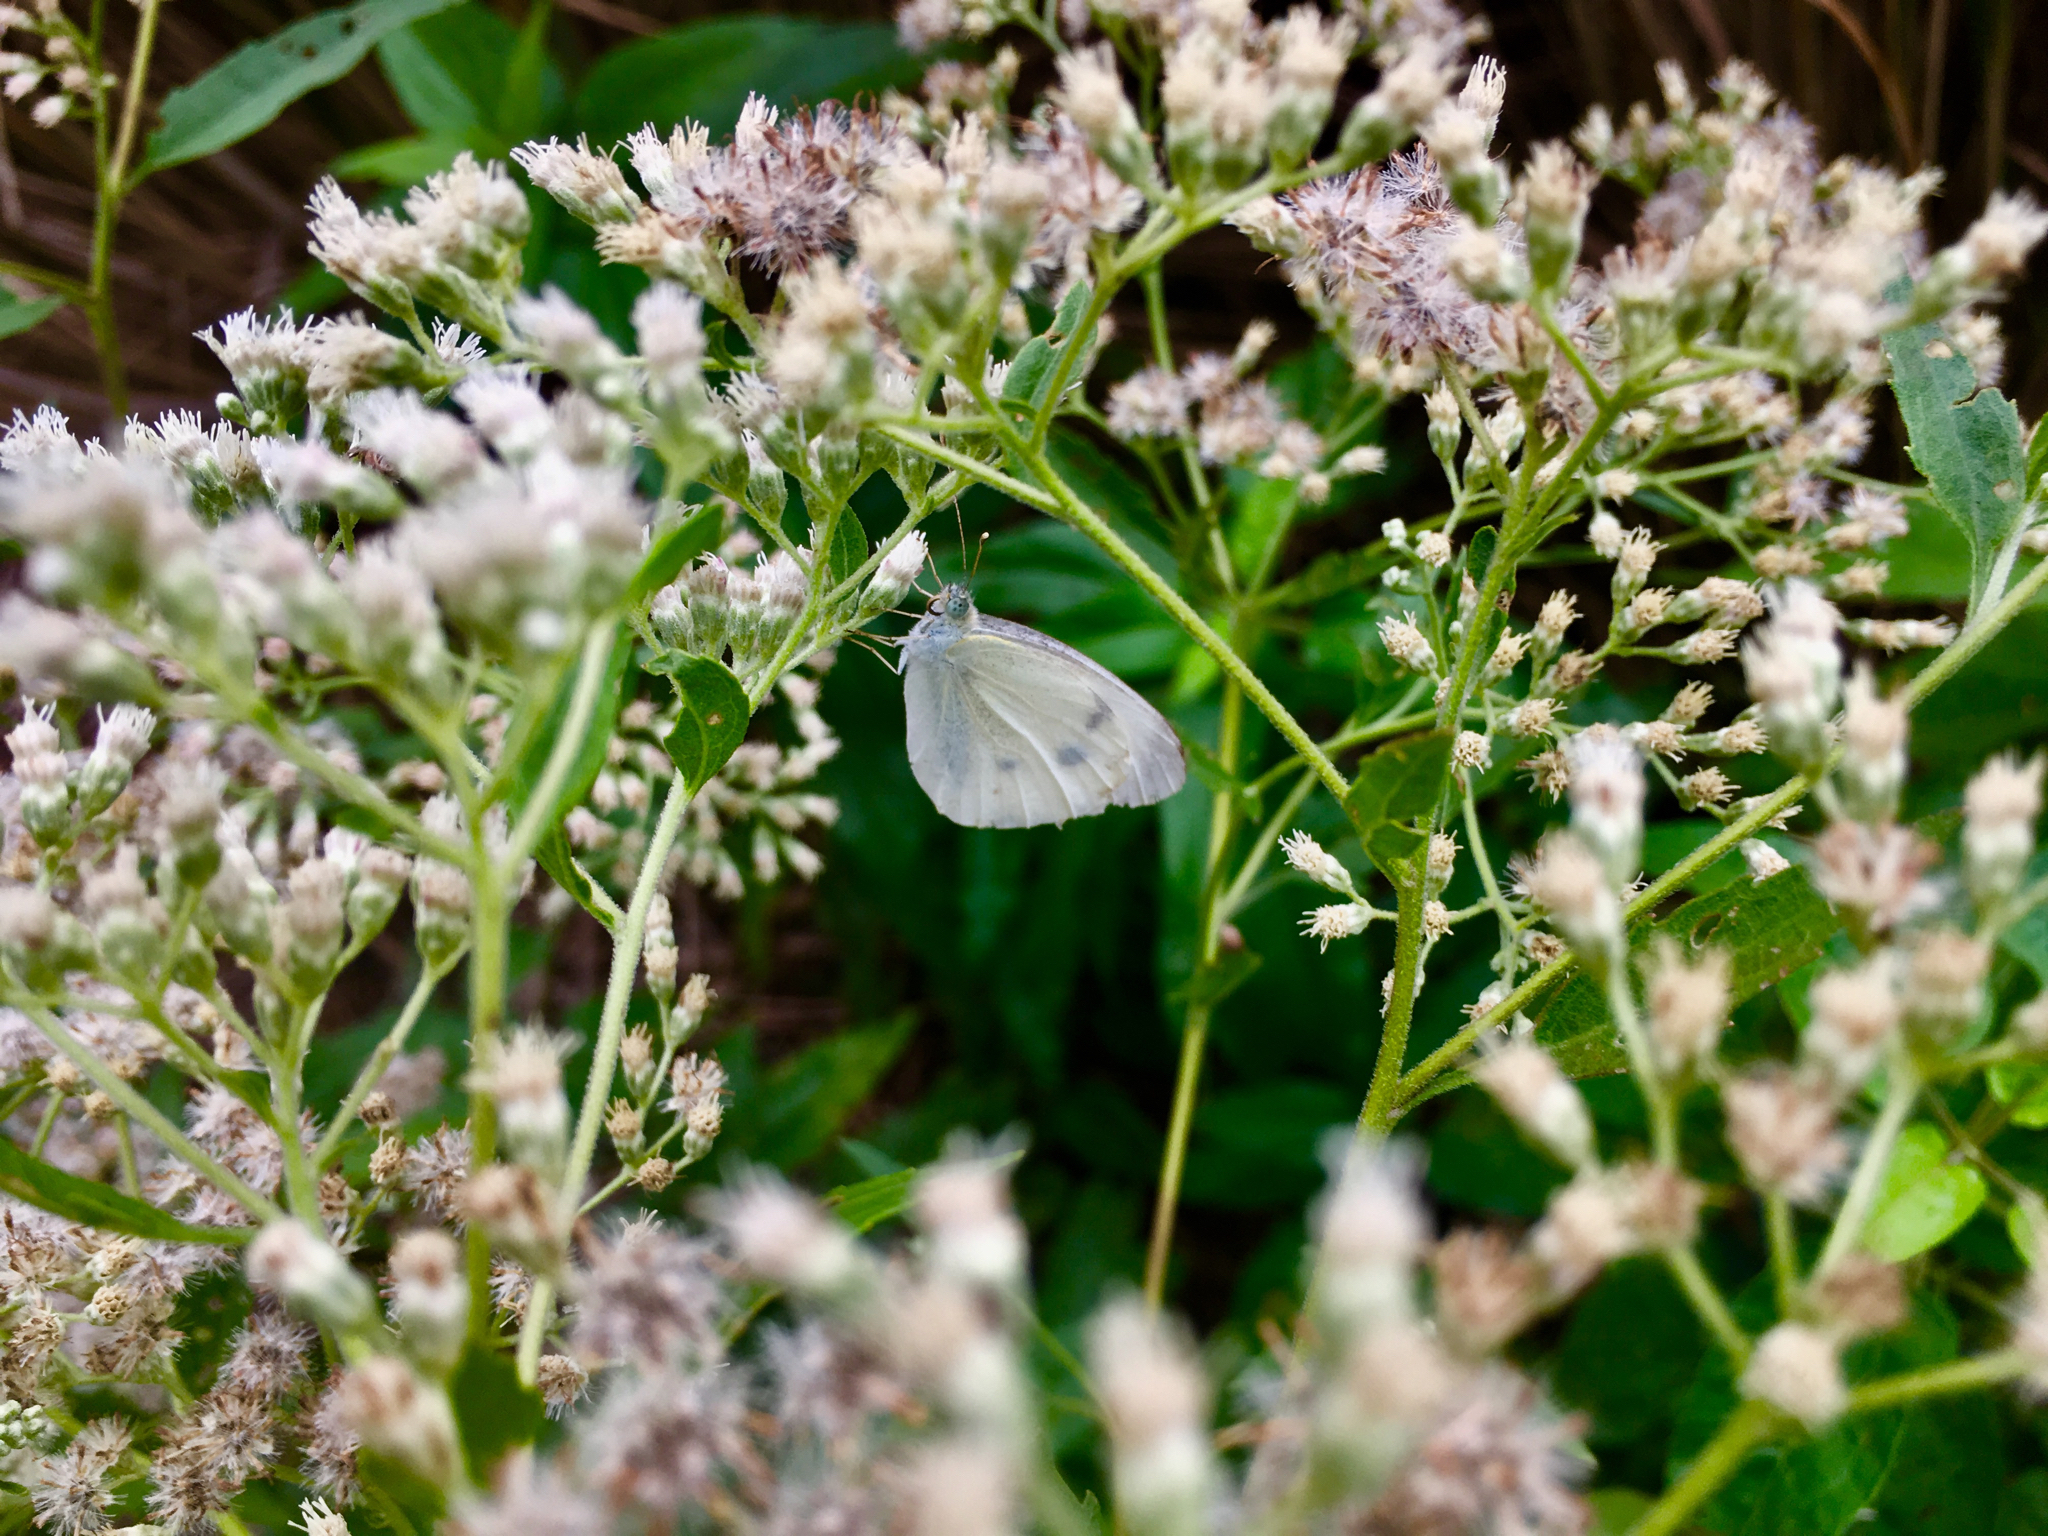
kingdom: Animalia
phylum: Arthropoda
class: Insecta
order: Lepidoptera
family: Pieridae
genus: Pieris
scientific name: Pieris rapae
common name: Small white
